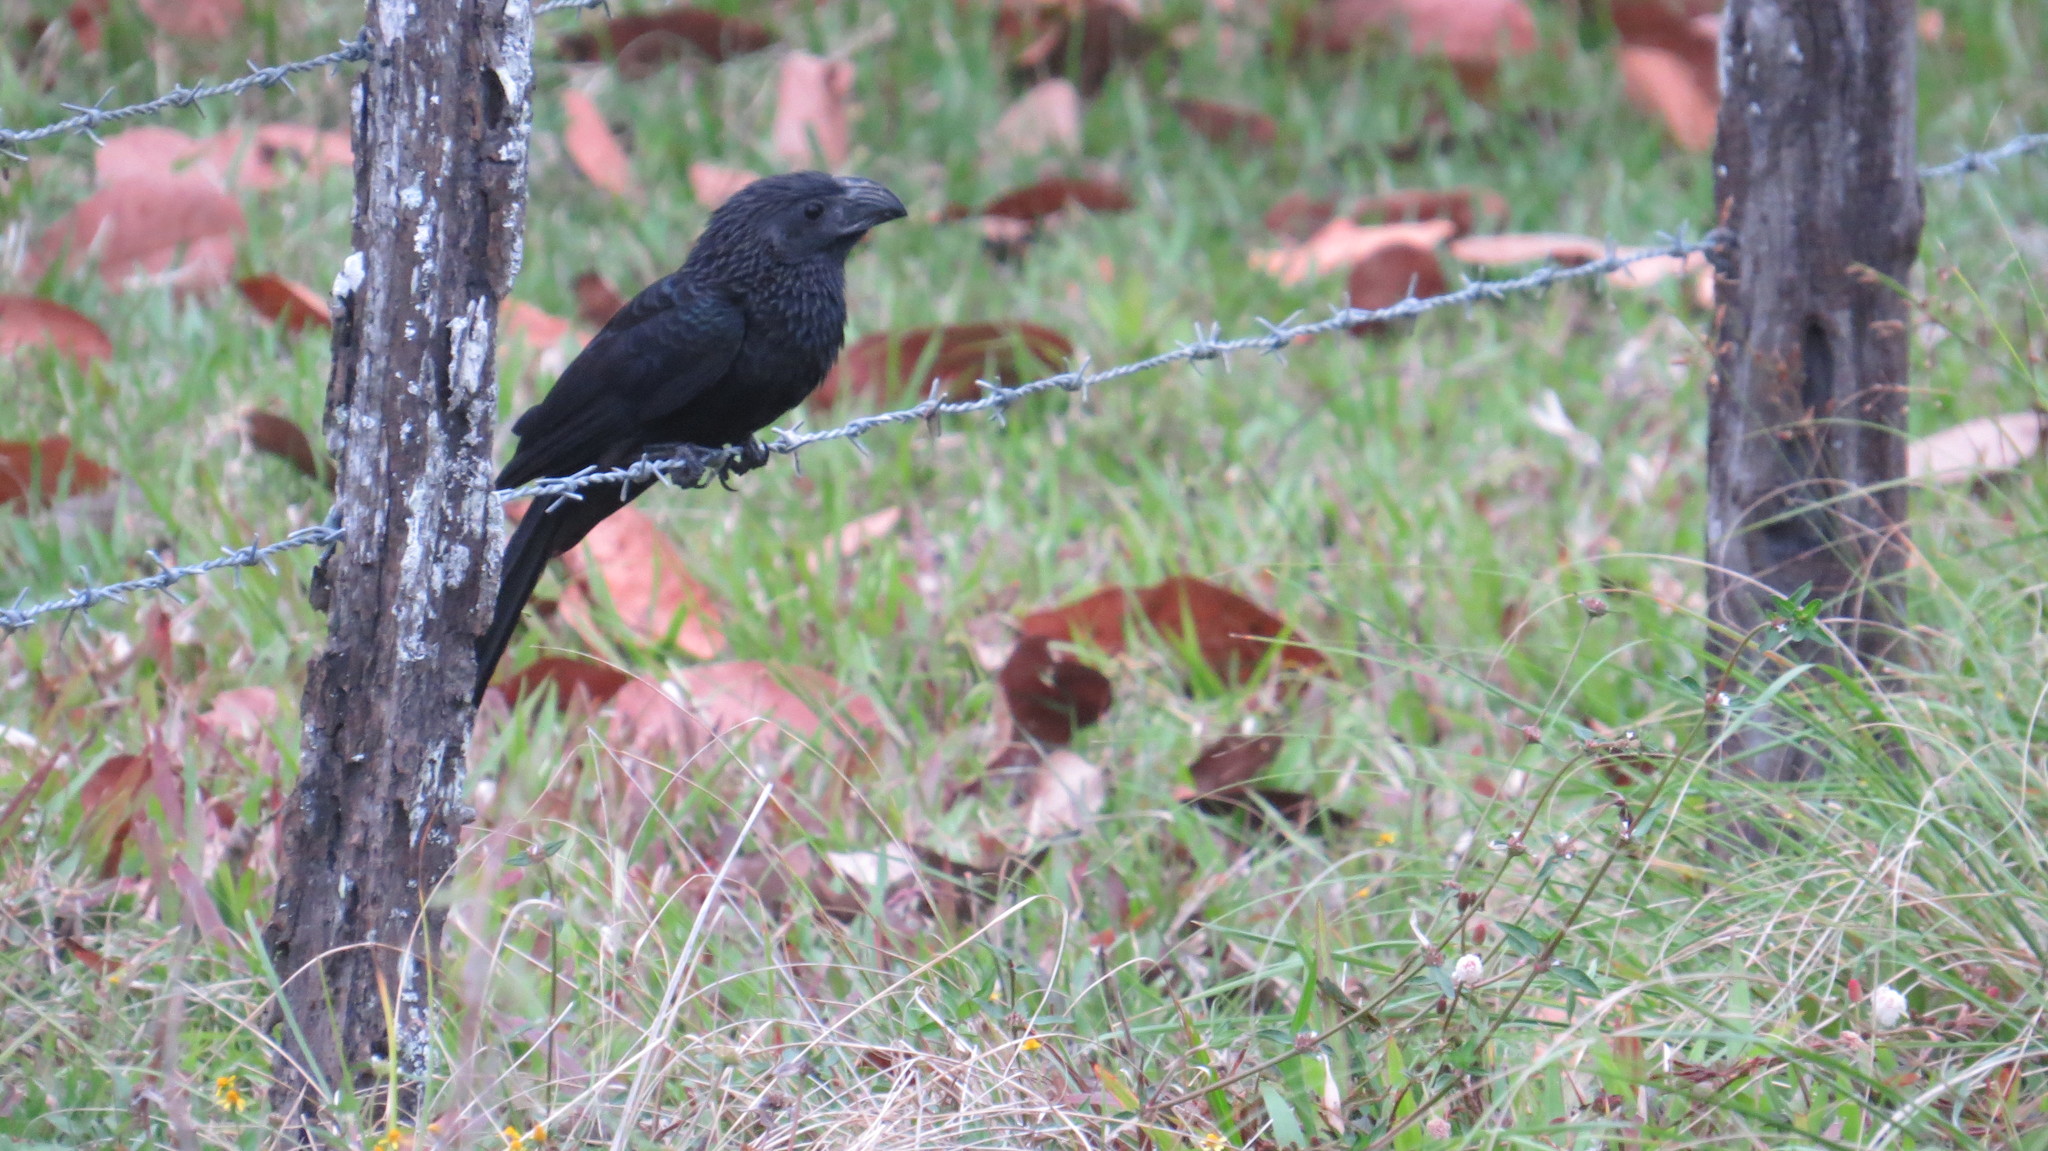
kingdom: Animalia
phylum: Chordata
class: Aves
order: Cuculiformes
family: Cuculidae
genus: Crotophaga
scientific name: Crotophaga sulcirostris
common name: Groove-billed ani
